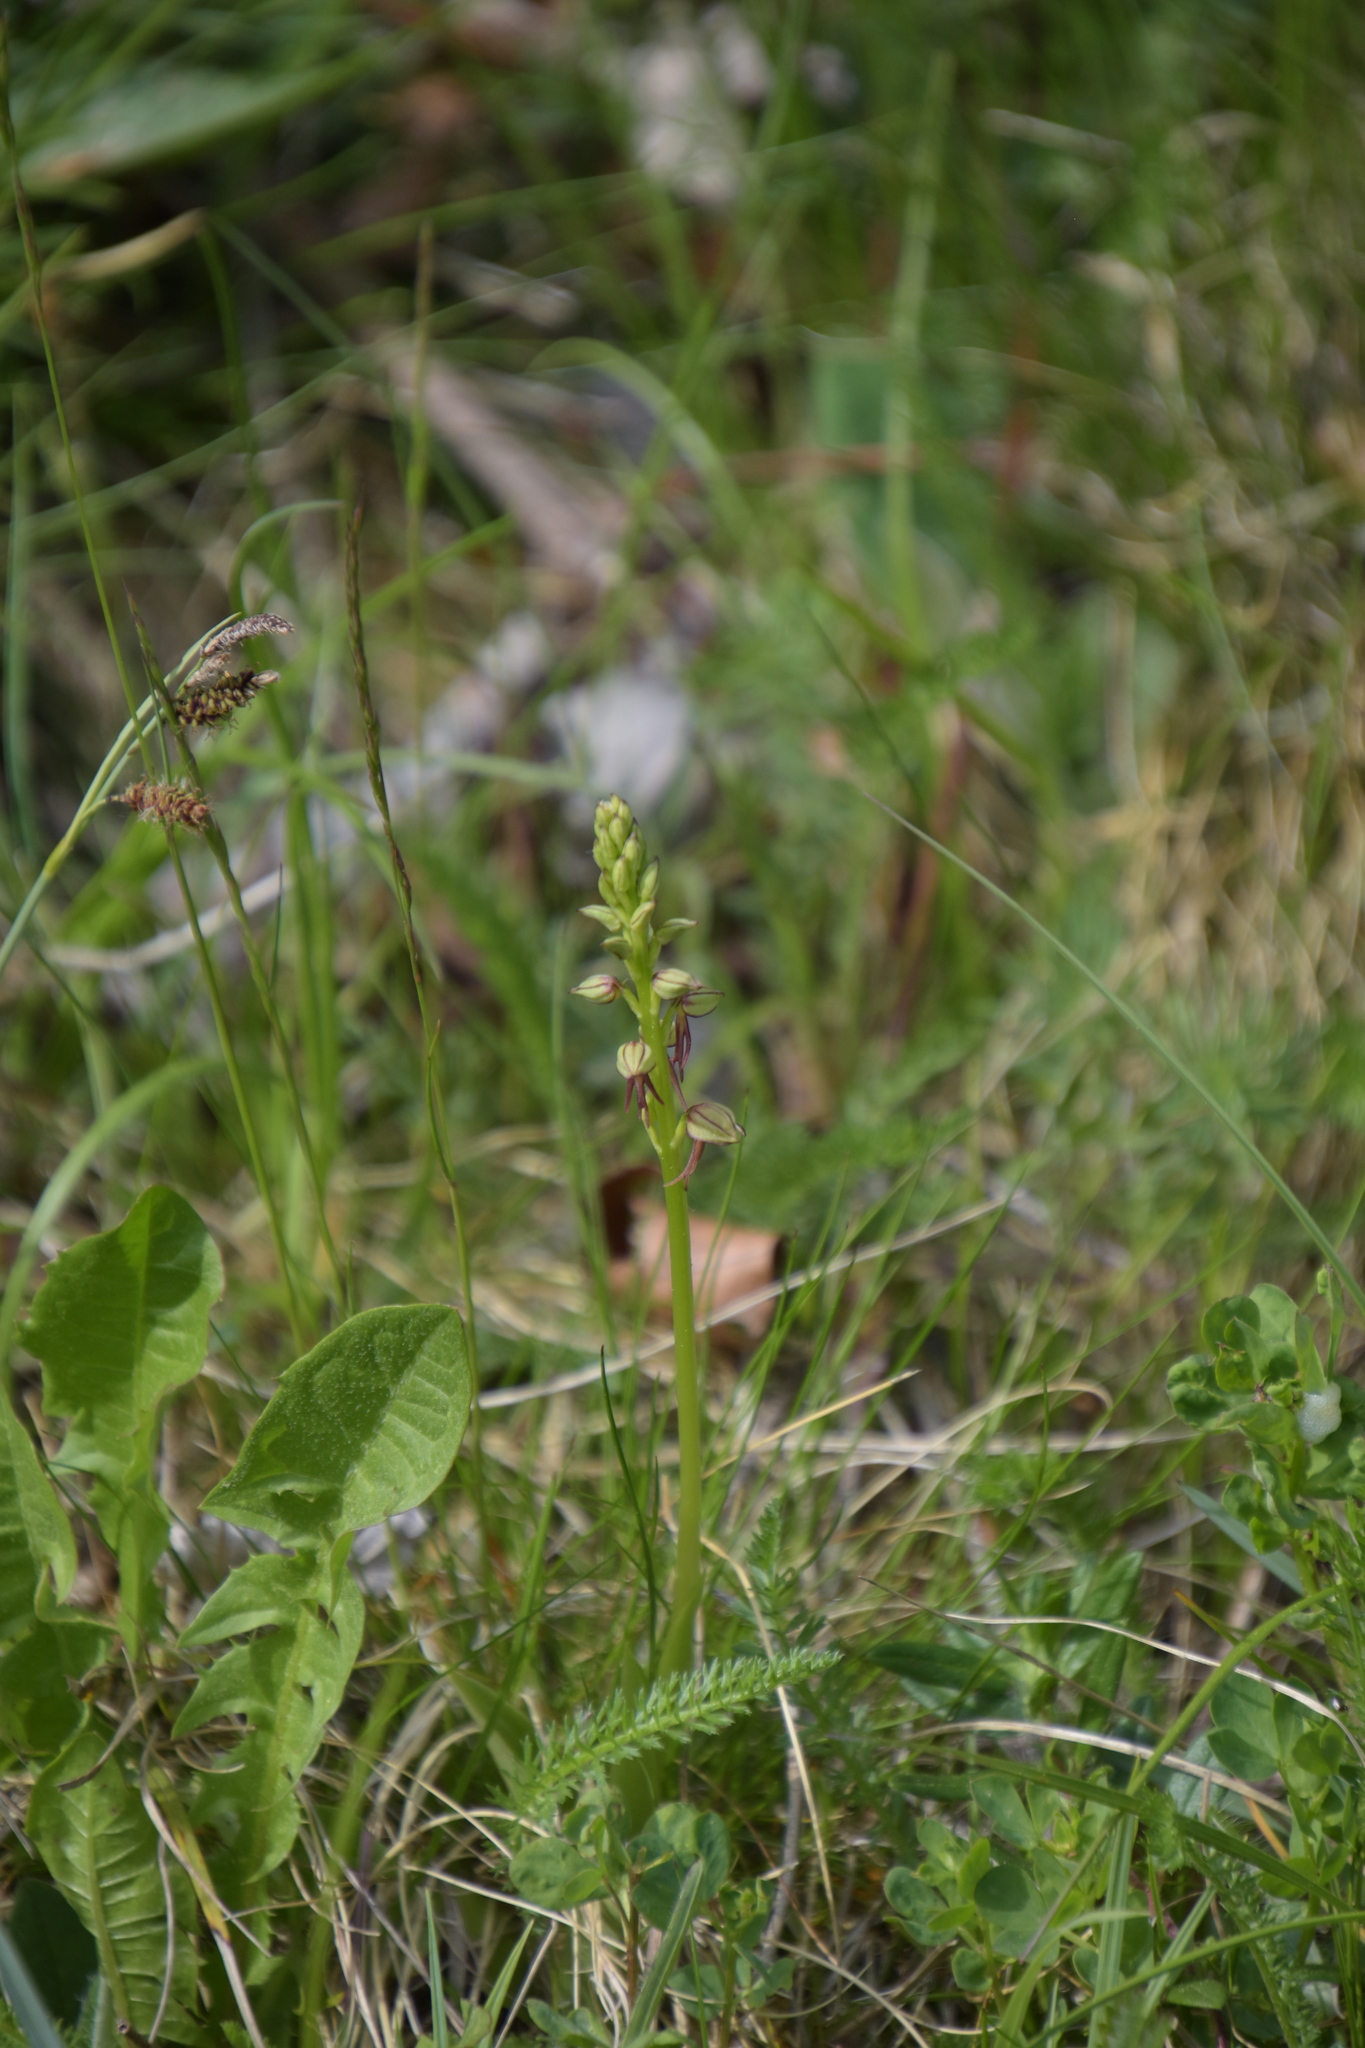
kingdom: Plantae
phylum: Tracheophyta
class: Liliopsida
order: Asparagales
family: Orchidaceae
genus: Orchis
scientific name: Orchis anthropophora
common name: Man orchid
